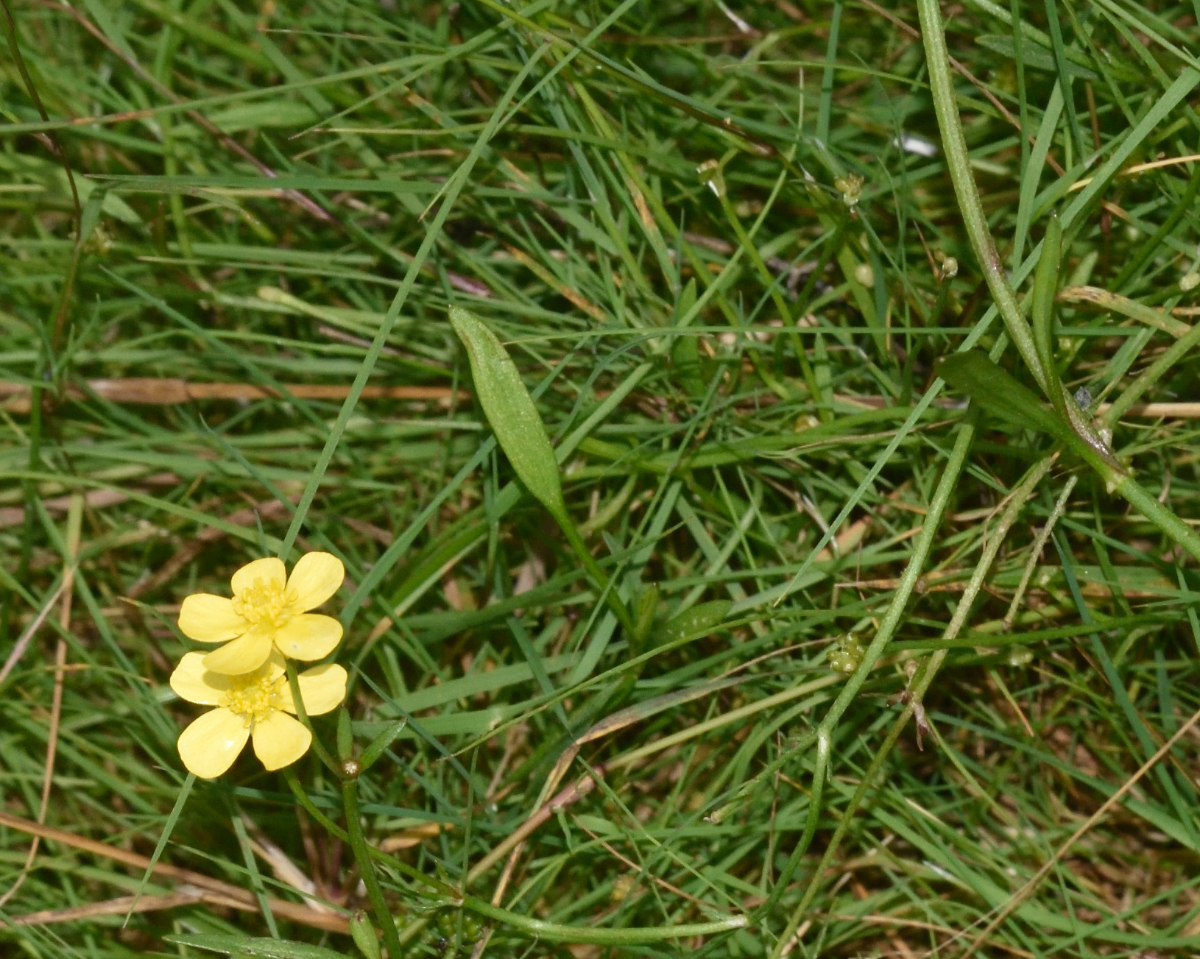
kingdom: Plantae
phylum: Tracheophyta
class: Magnoliopsida
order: Ranunculales
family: Ranunculaceae
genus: Ranunculus
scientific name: Ranunculus flammula
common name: Lesser spearwort
